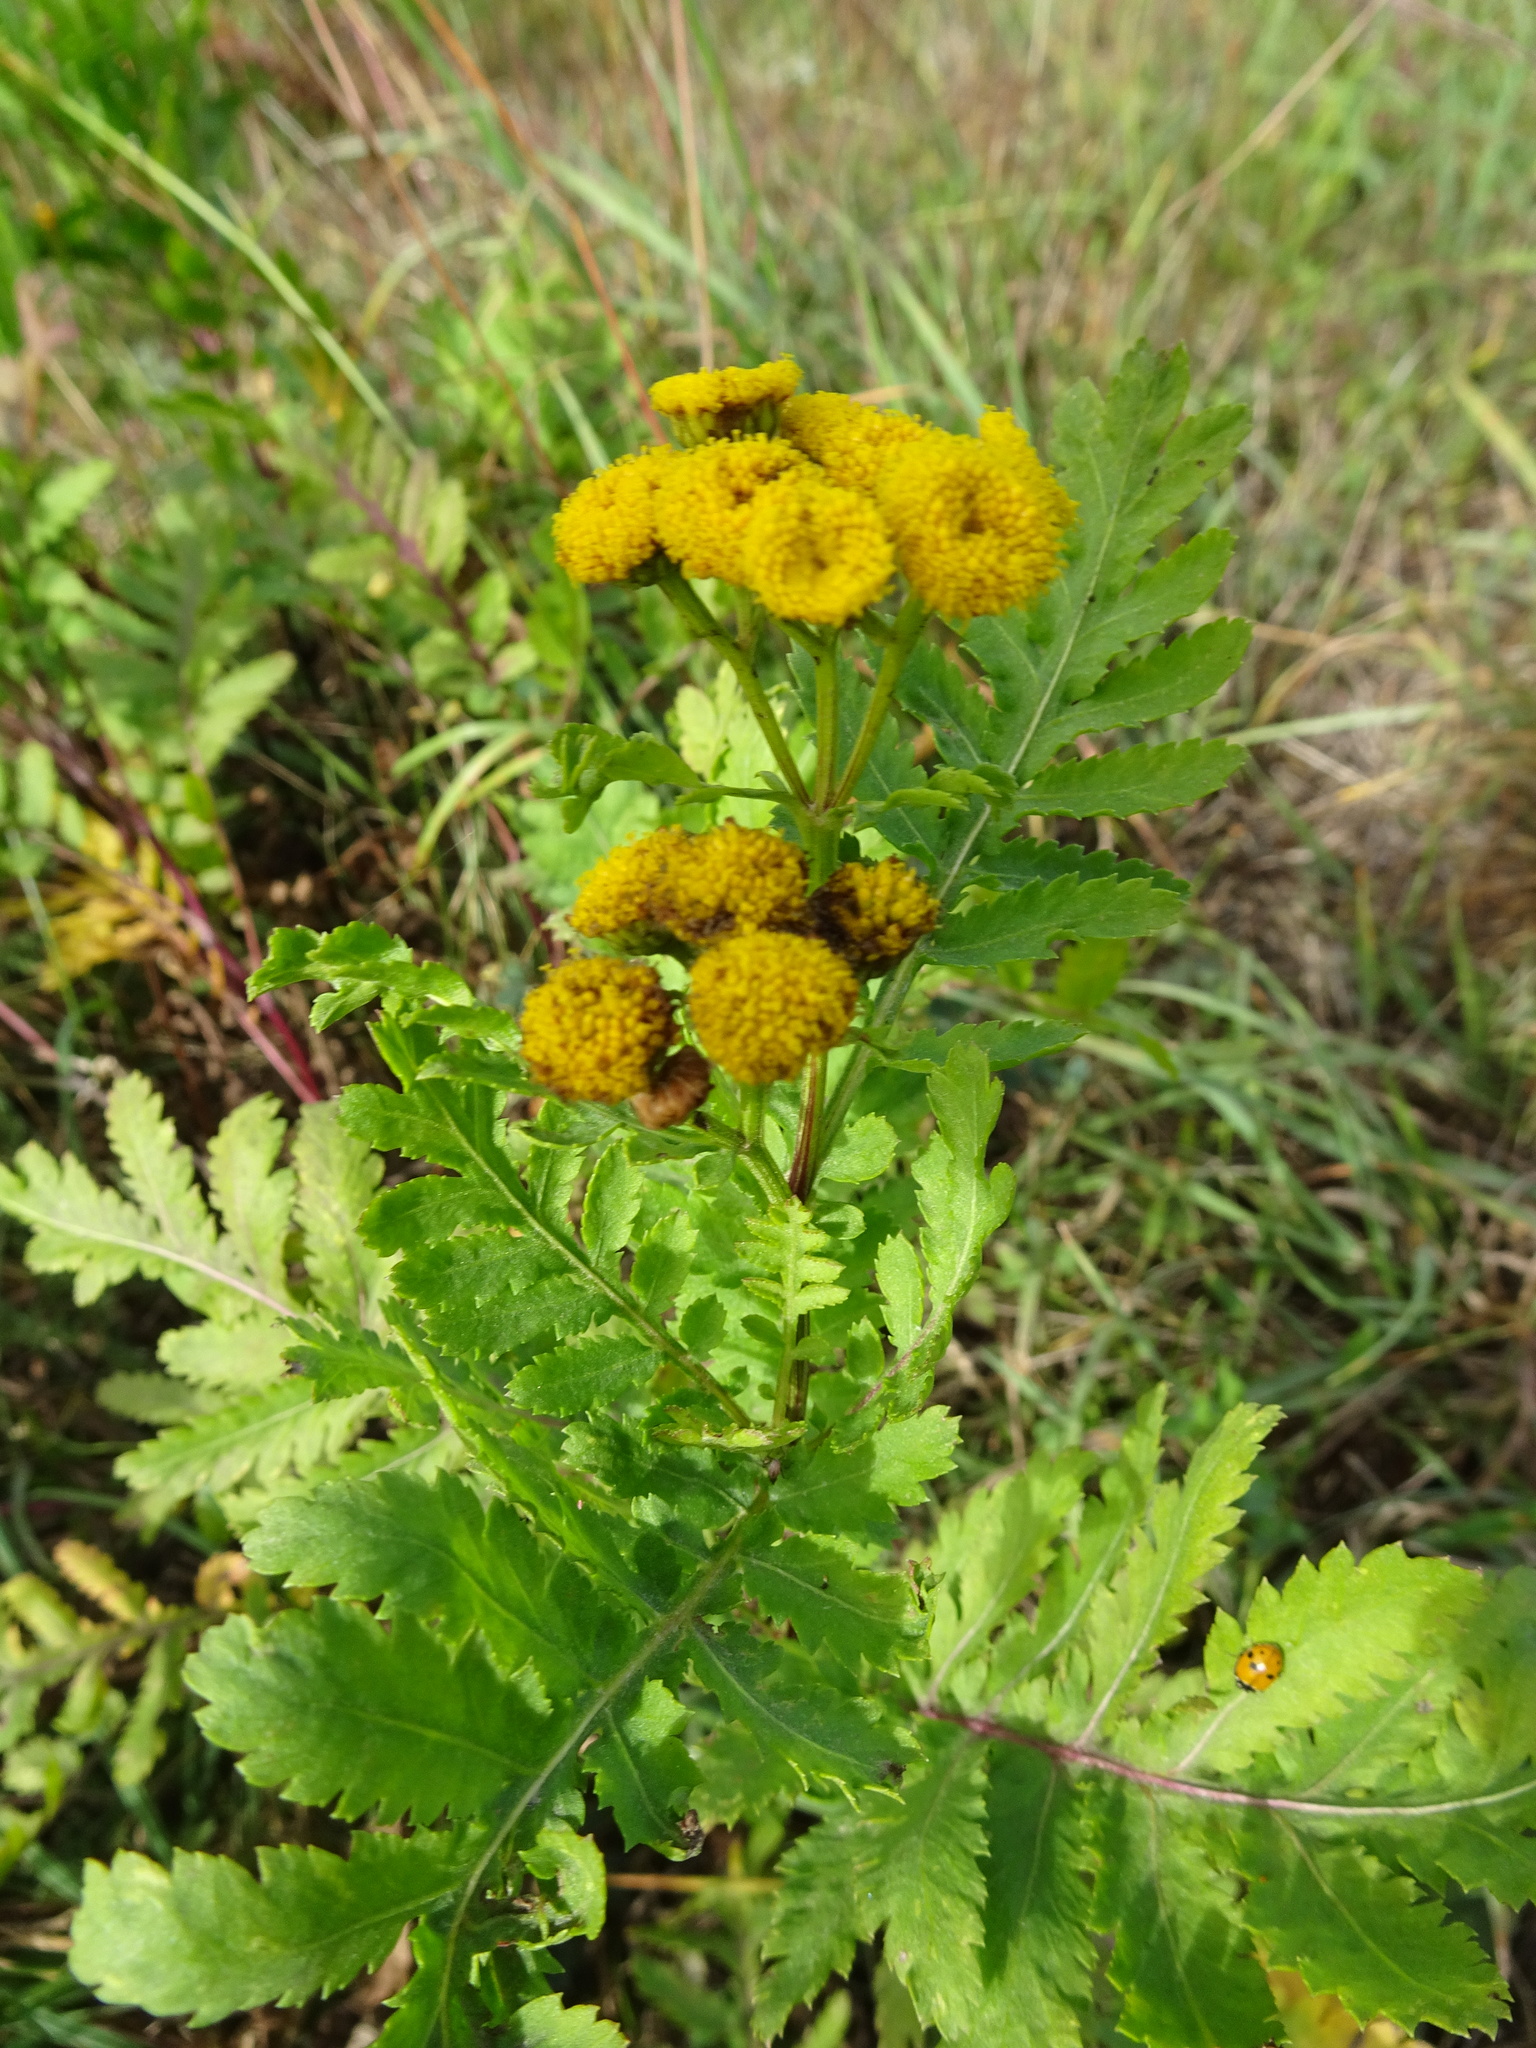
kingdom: Plantae
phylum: Tracheophyta
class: Magnoliopsida
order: Asterales
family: Asteraceae
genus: Tanacetum
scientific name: Tanacetum vulgare
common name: Common tansy
